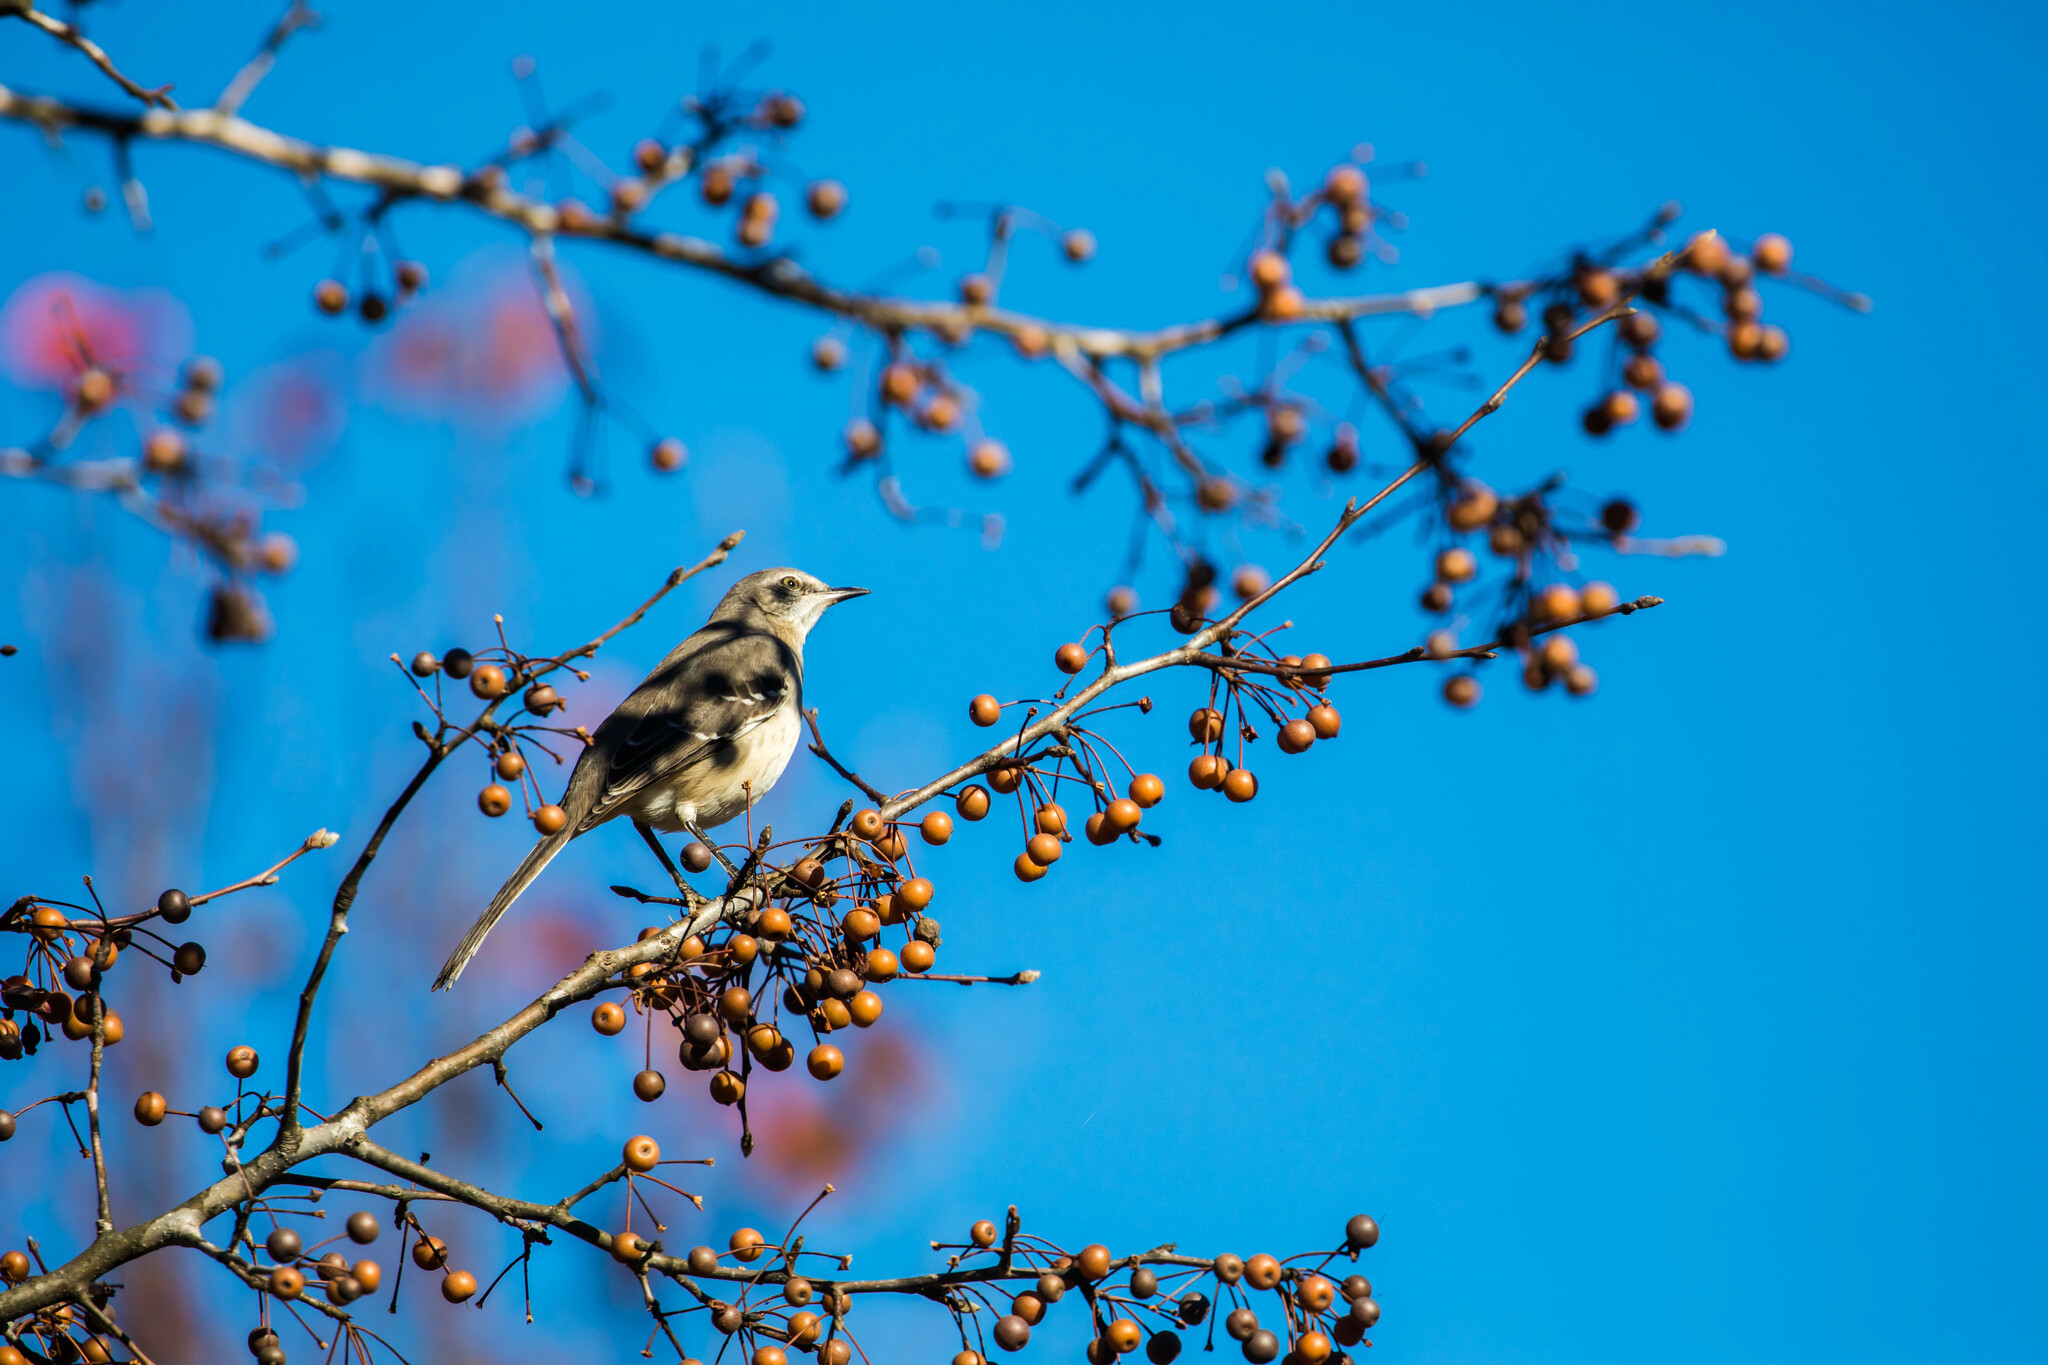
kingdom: Animalia
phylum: Chordata
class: Aves
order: Passeriformes
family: Mimidae
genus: Mimus
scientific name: Mimus polyglottos
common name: Northern mockingbird
